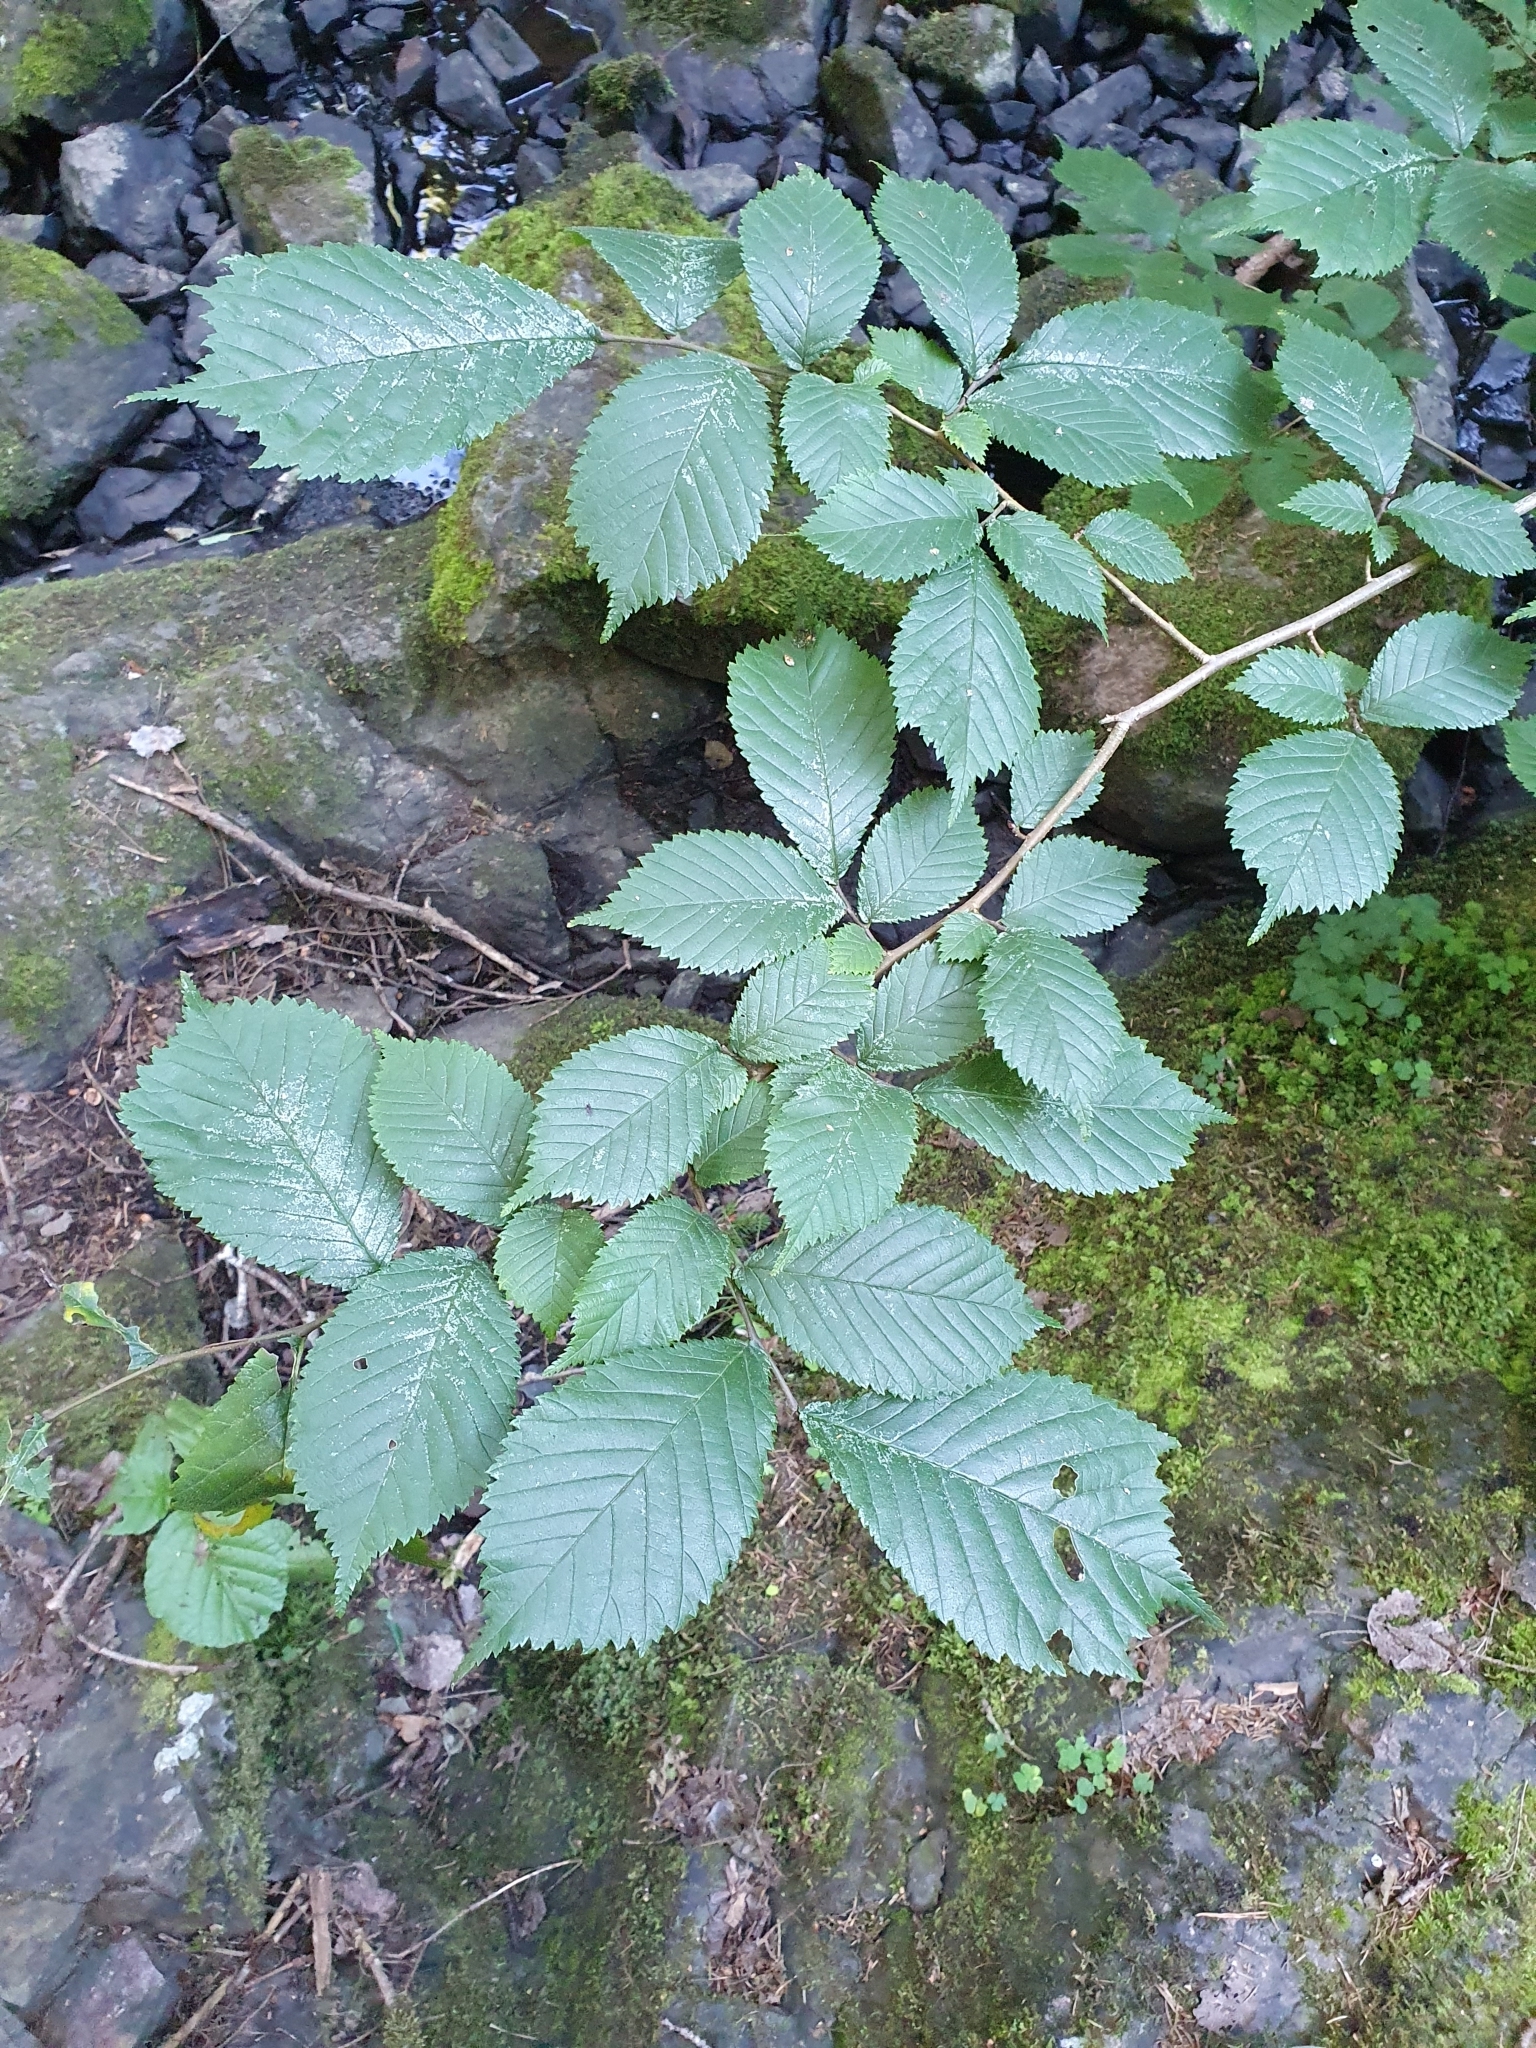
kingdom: Plantae
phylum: Tracheophyta
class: Magnoliopsida
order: Rosales
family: Ulmaceae
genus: Ulmus
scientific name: Ulmus glabra
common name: Wych elm
